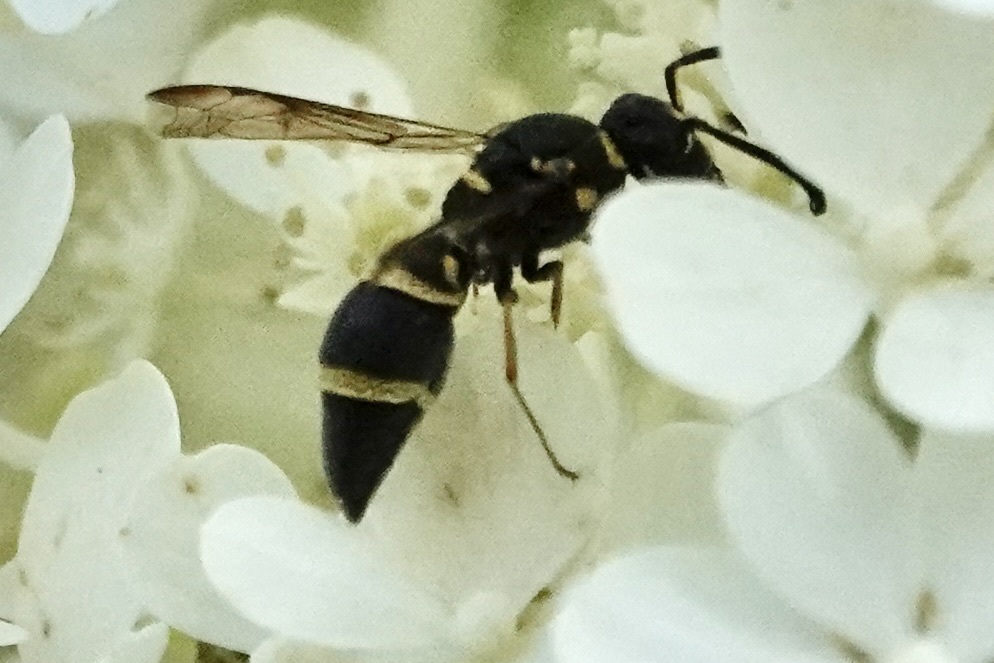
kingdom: Animalia
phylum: Arthropoda
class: Insecta
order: Hymenoptera
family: Eumenidae
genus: Parancistrocerus
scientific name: Parancistrocerus fulvipes
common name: Potter wasp
